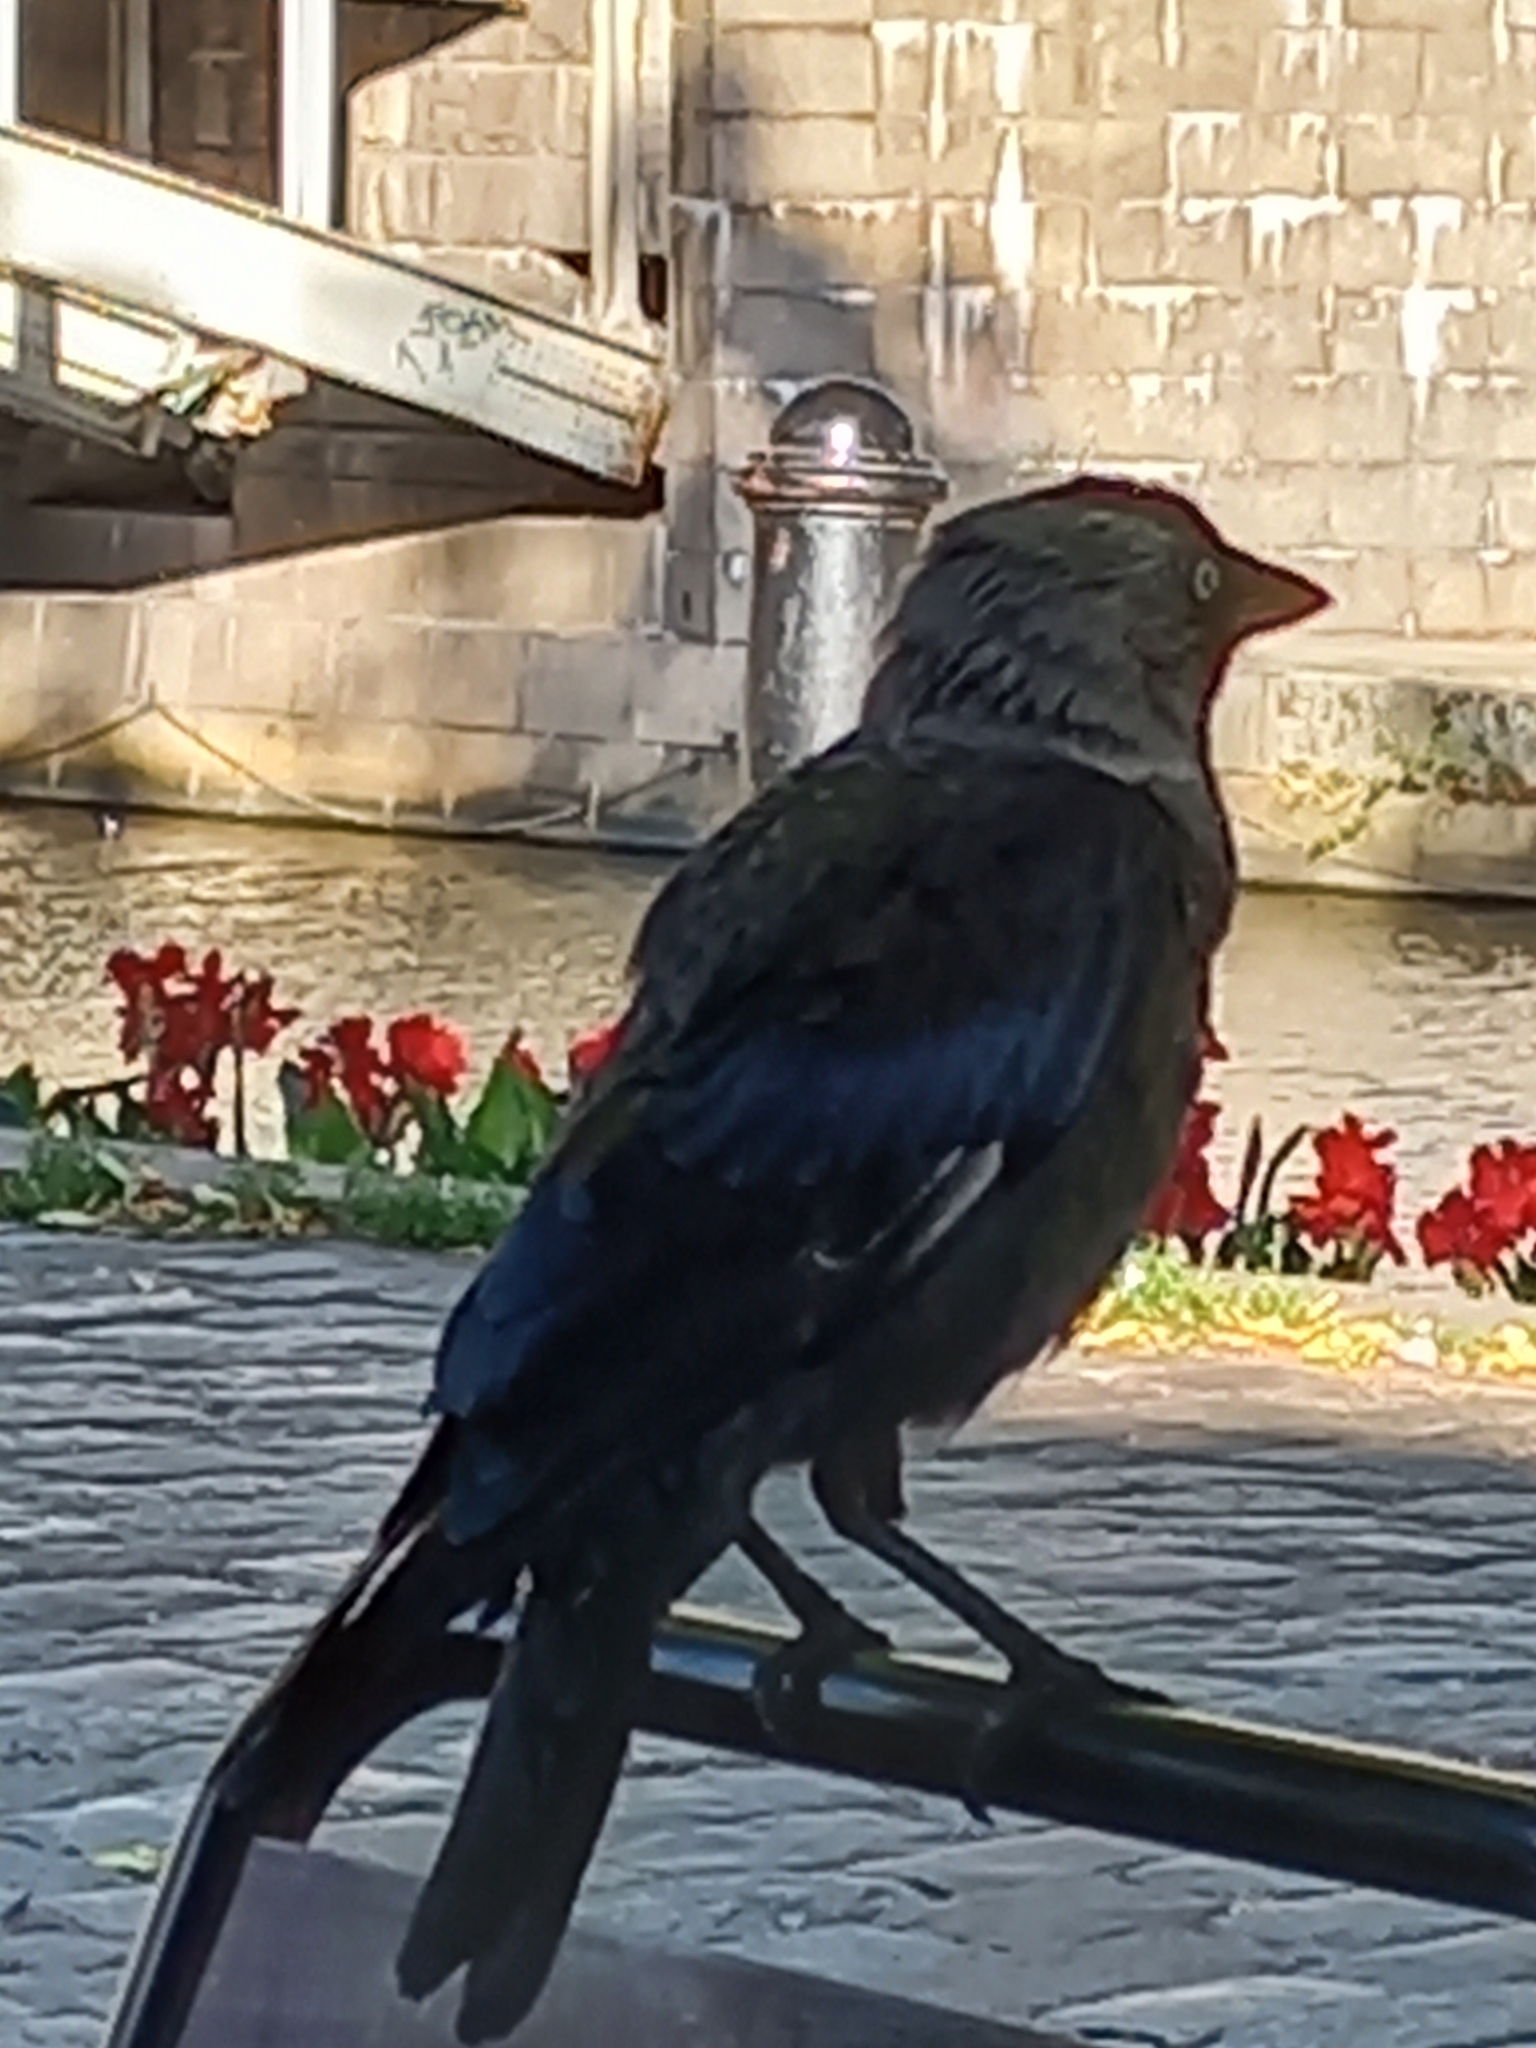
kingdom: Animalia
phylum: Chordata
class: Aves
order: Passeriformes
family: Corvidae
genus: Coloeus
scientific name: Coloeus monedula
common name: Western jackdaw
